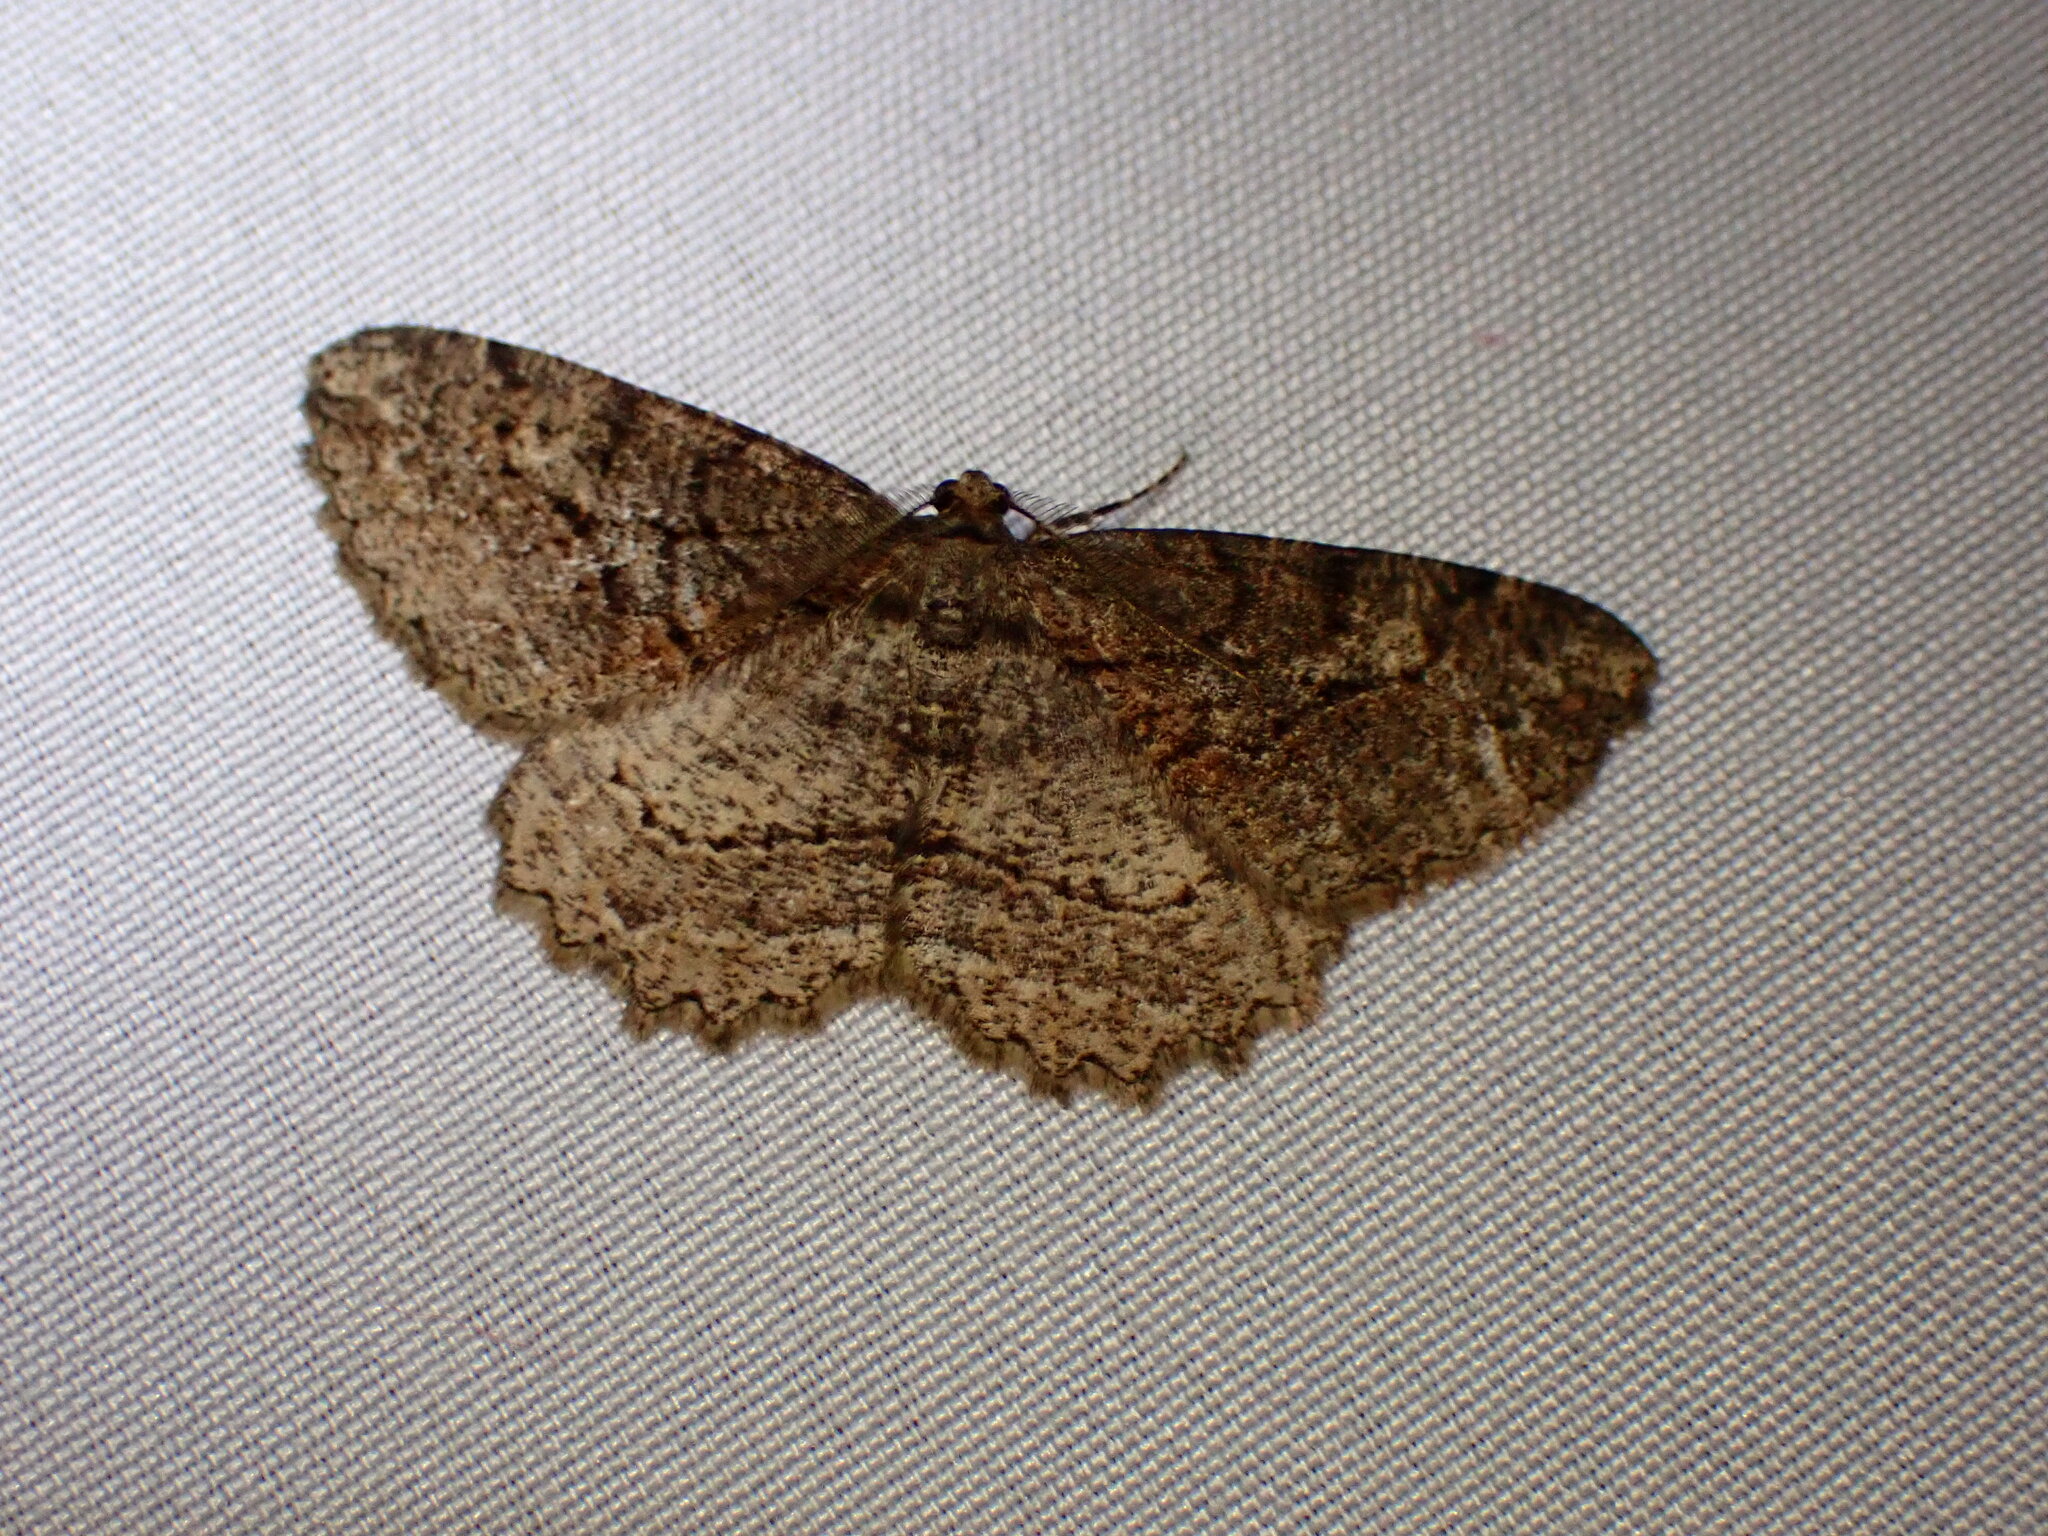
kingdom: Animalia
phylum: Arthropoda
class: Insecta
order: Lepidoptera
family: Geometridae
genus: Neoalcis
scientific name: Neoalcis californiaria
